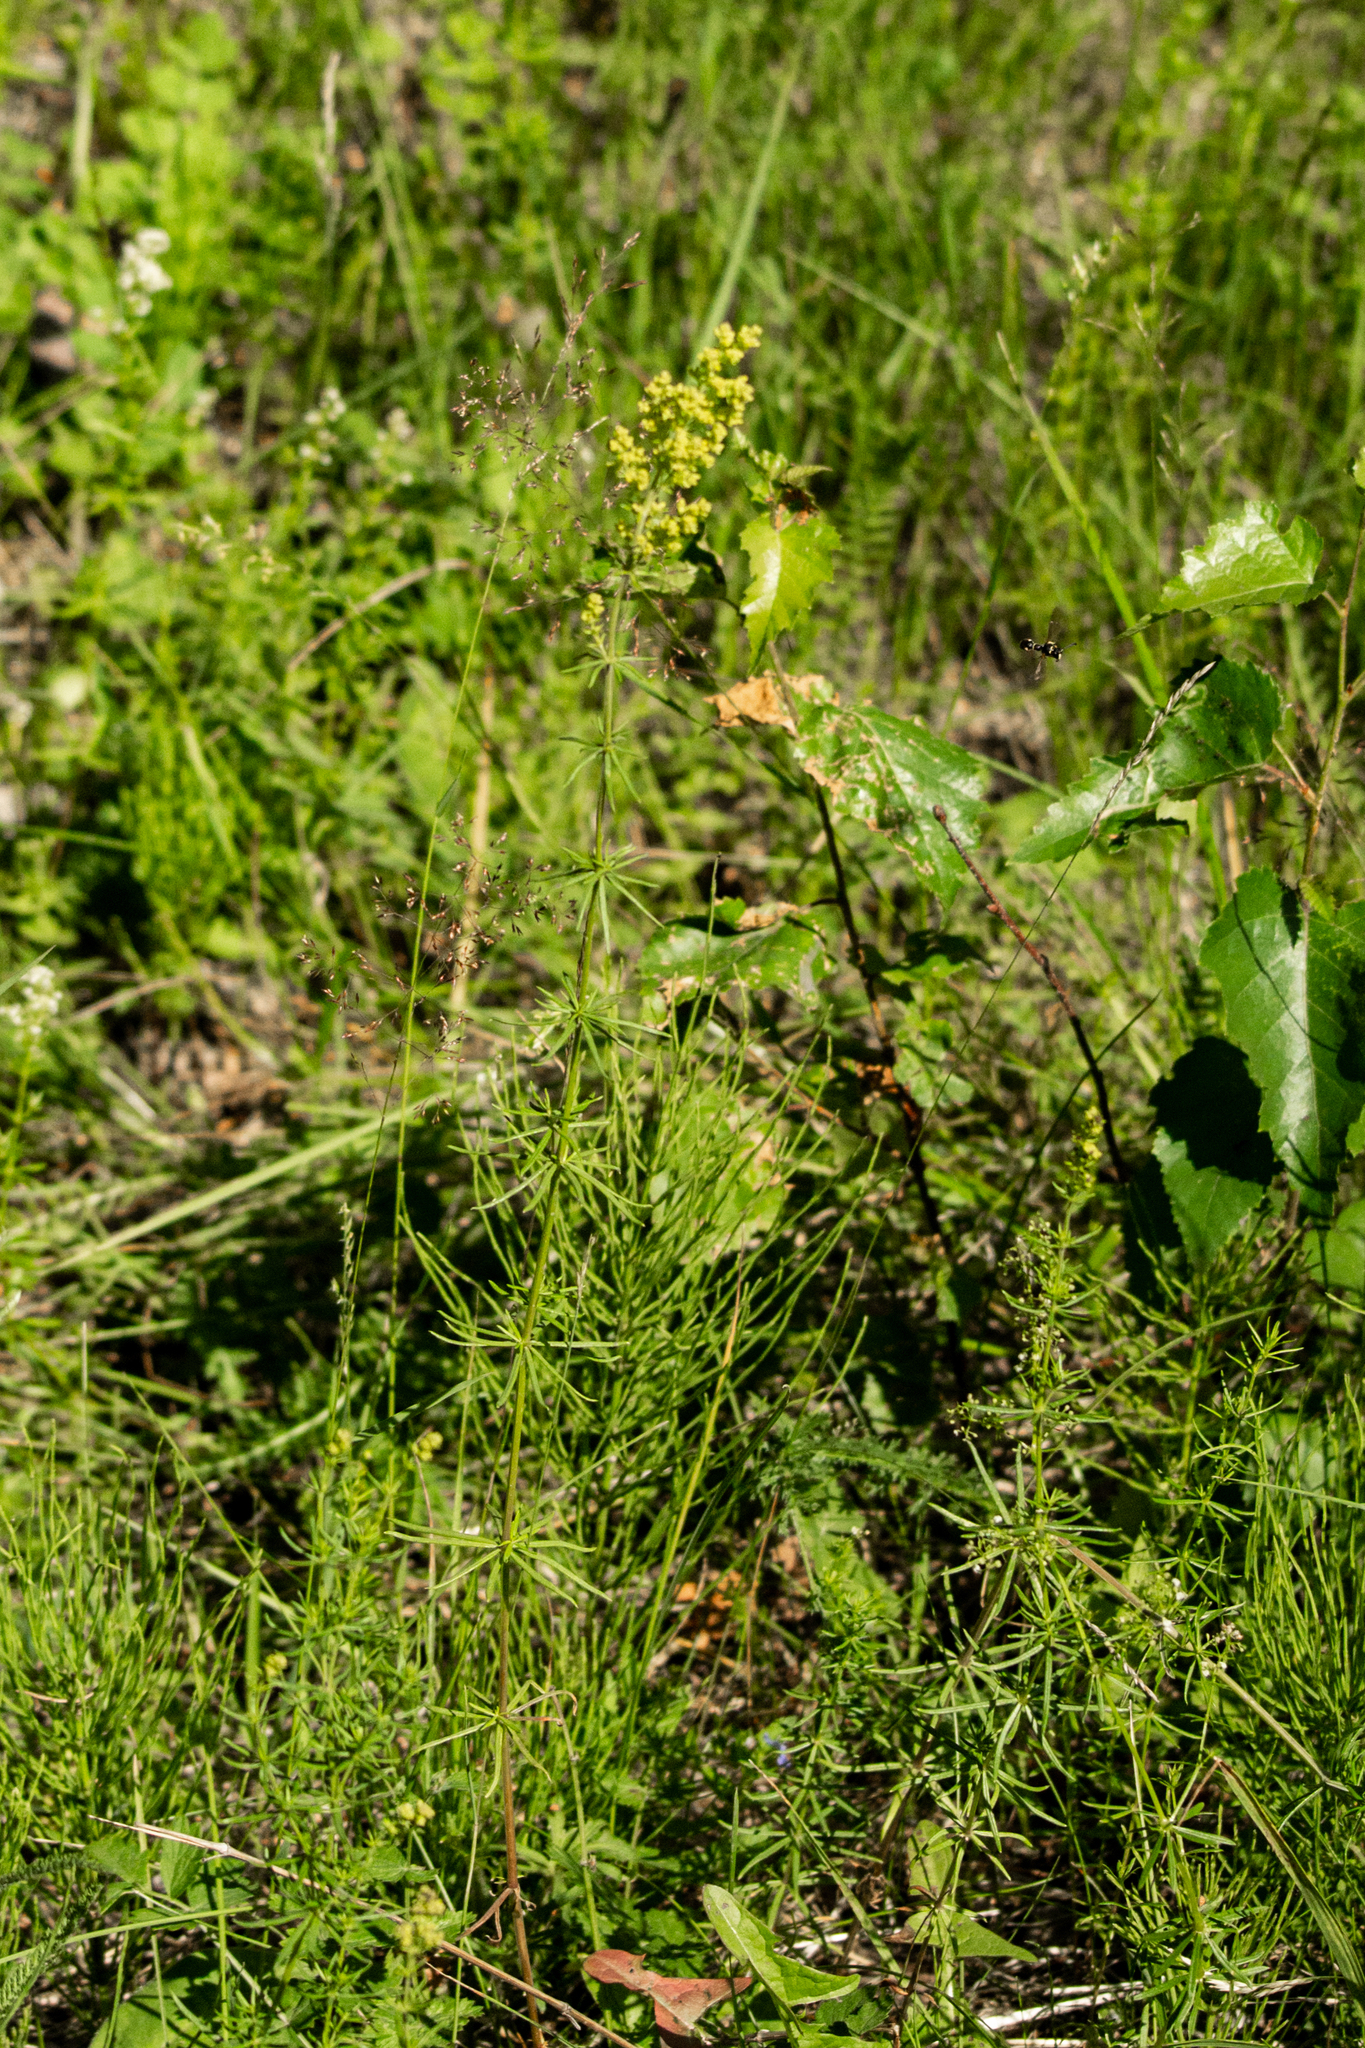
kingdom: Plantae
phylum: Tracheophyta
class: Magnoliopsida
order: Gentianales
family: Rubiaceae
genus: Galium
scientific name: Galium verum
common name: Lady's bedstraw
